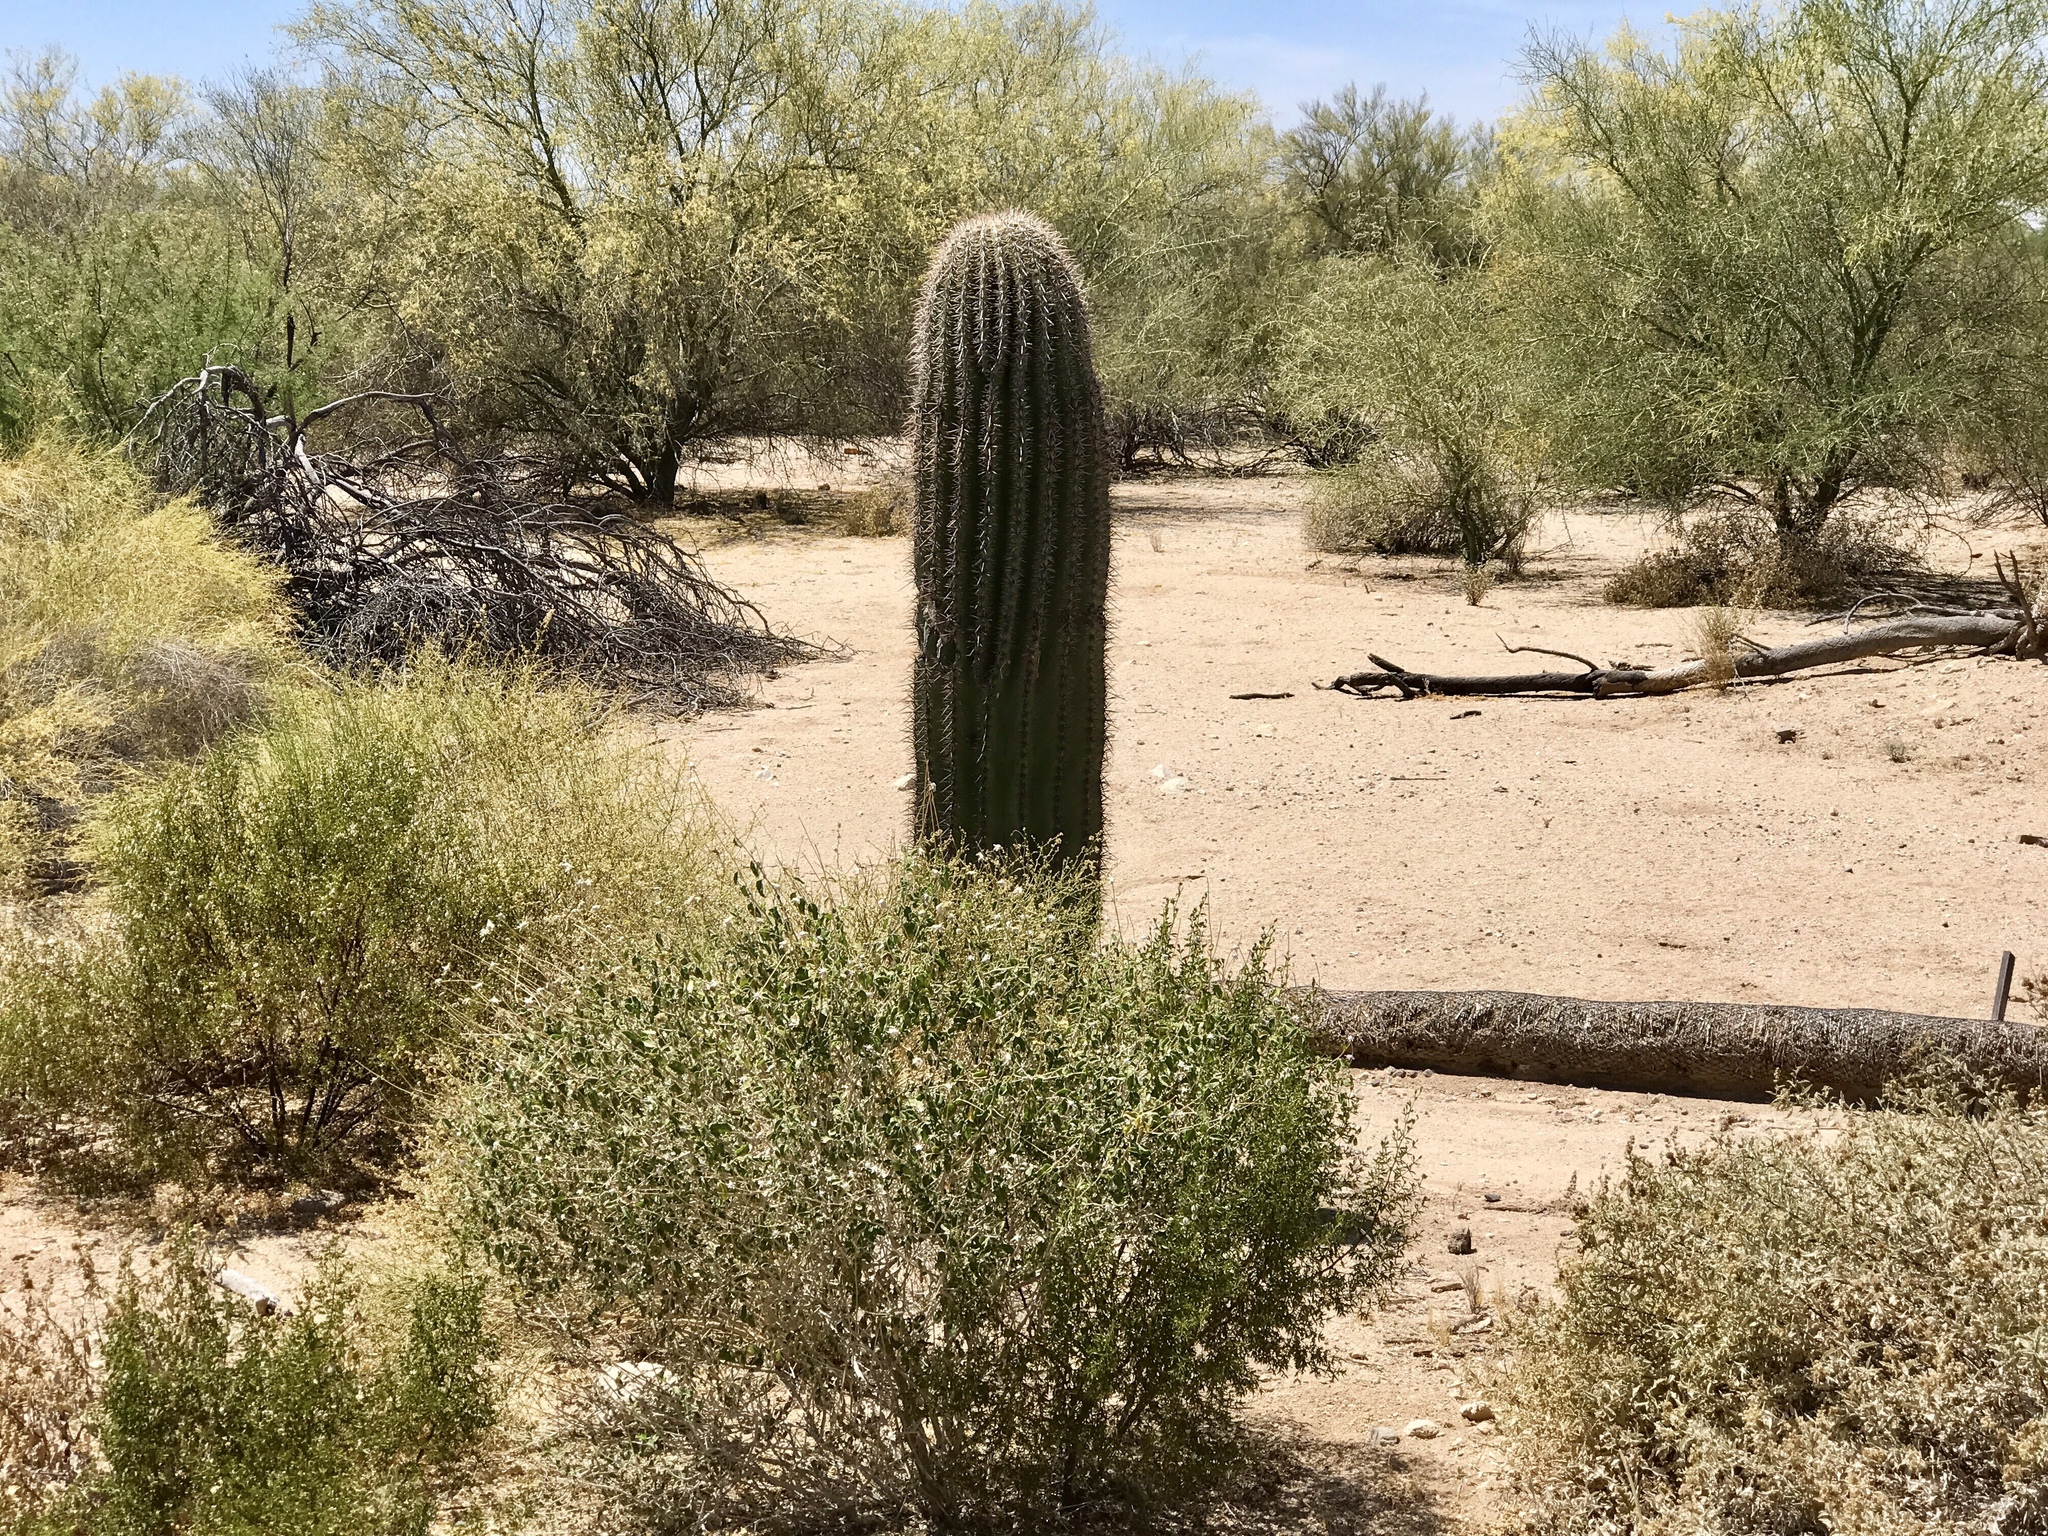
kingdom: Plantae
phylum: Tracheophyta
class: Magnoliopsida
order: Caryophyllales
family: Cactaceae
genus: Carnegiea
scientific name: Carnegiea gigantea
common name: Saguaro
